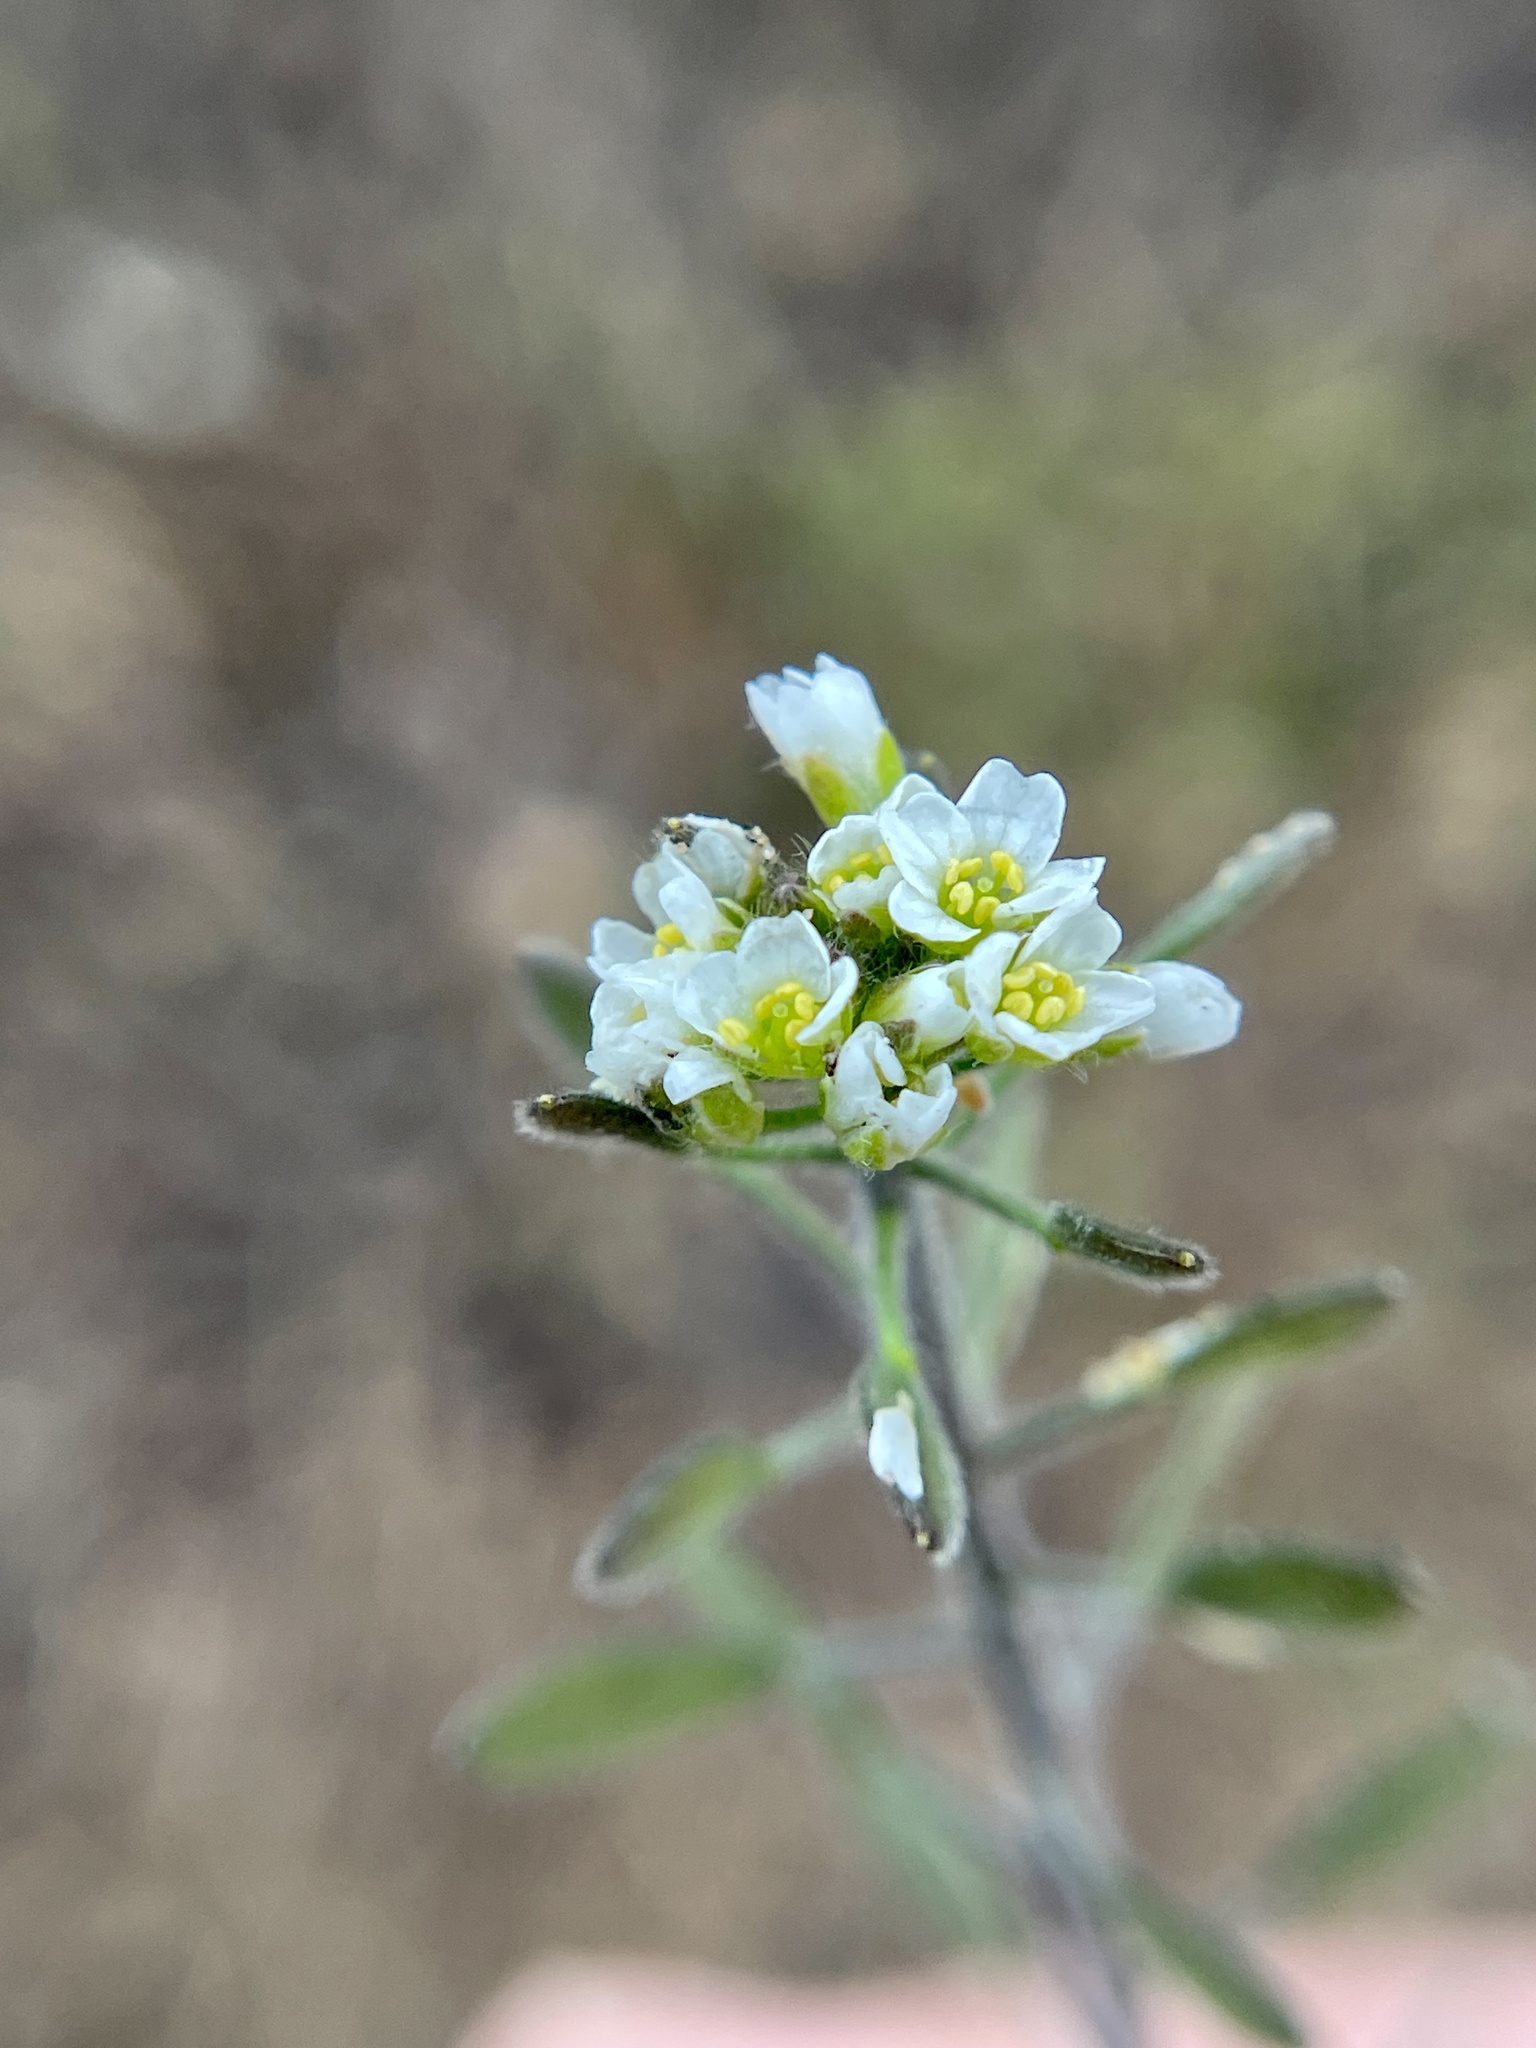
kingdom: Plantae
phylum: Tracheophyta
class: Magnoliopsida
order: Brassicales
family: Brassicaceae
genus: Tomostima
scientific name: Tomostima platycarpa
